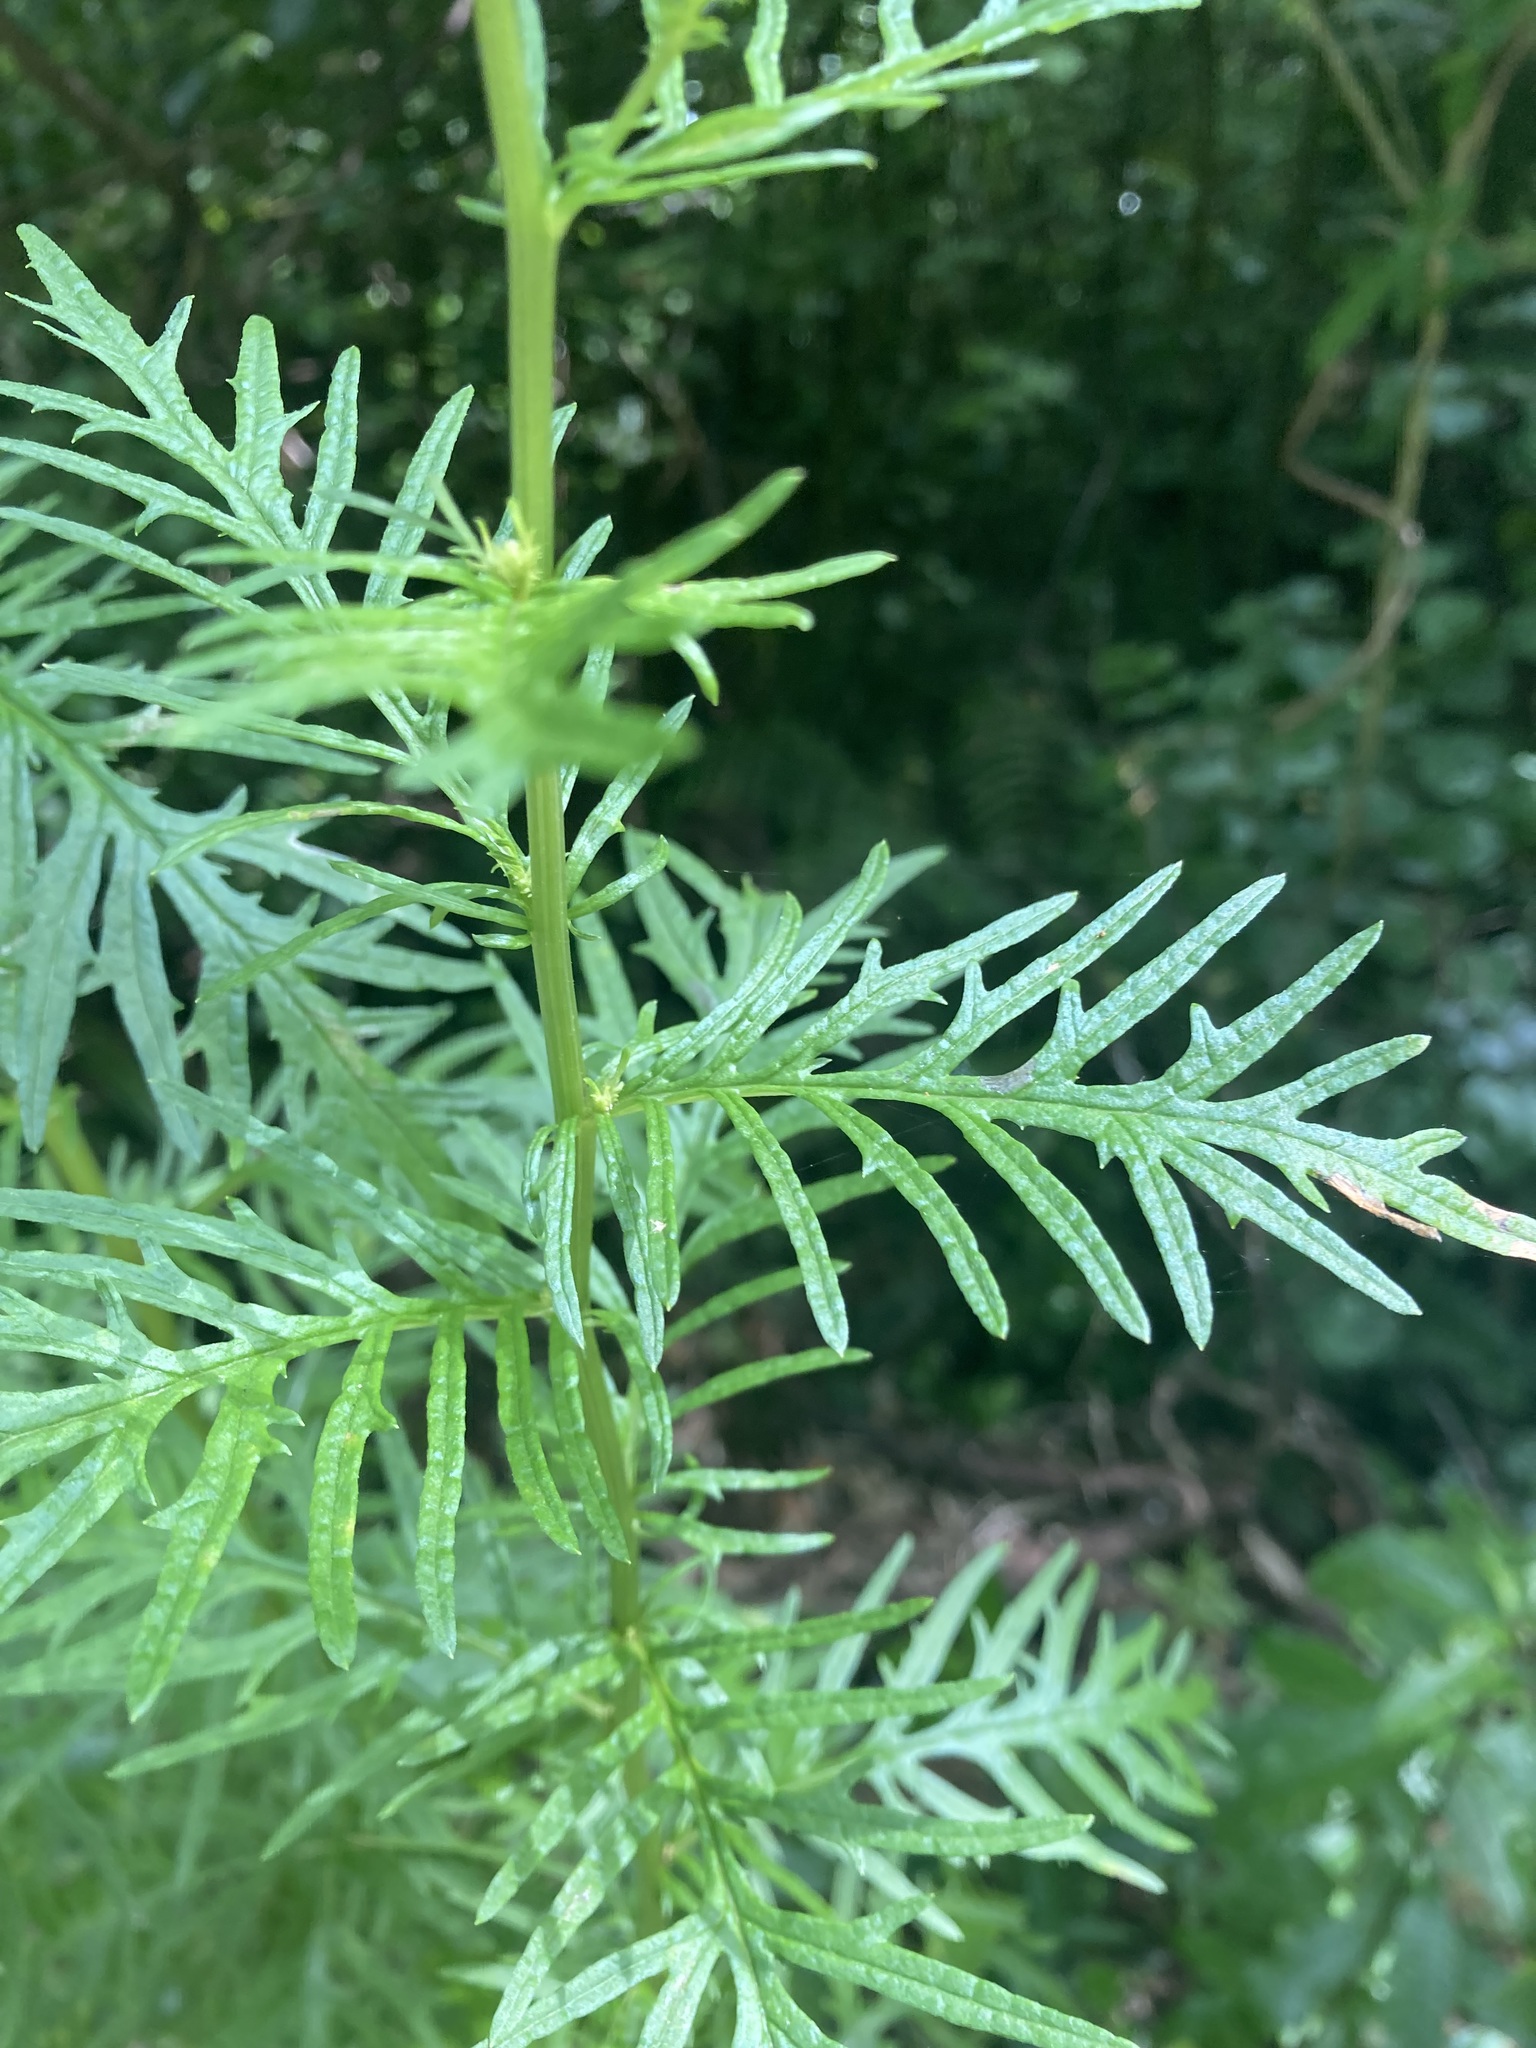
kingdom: Plantae
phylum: Tracheophyta
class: Magnoliopsida
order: Asterales
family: Asteraceae
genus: Senecio
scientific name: Senecio bipinnatisectus
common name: Australian fireweed
